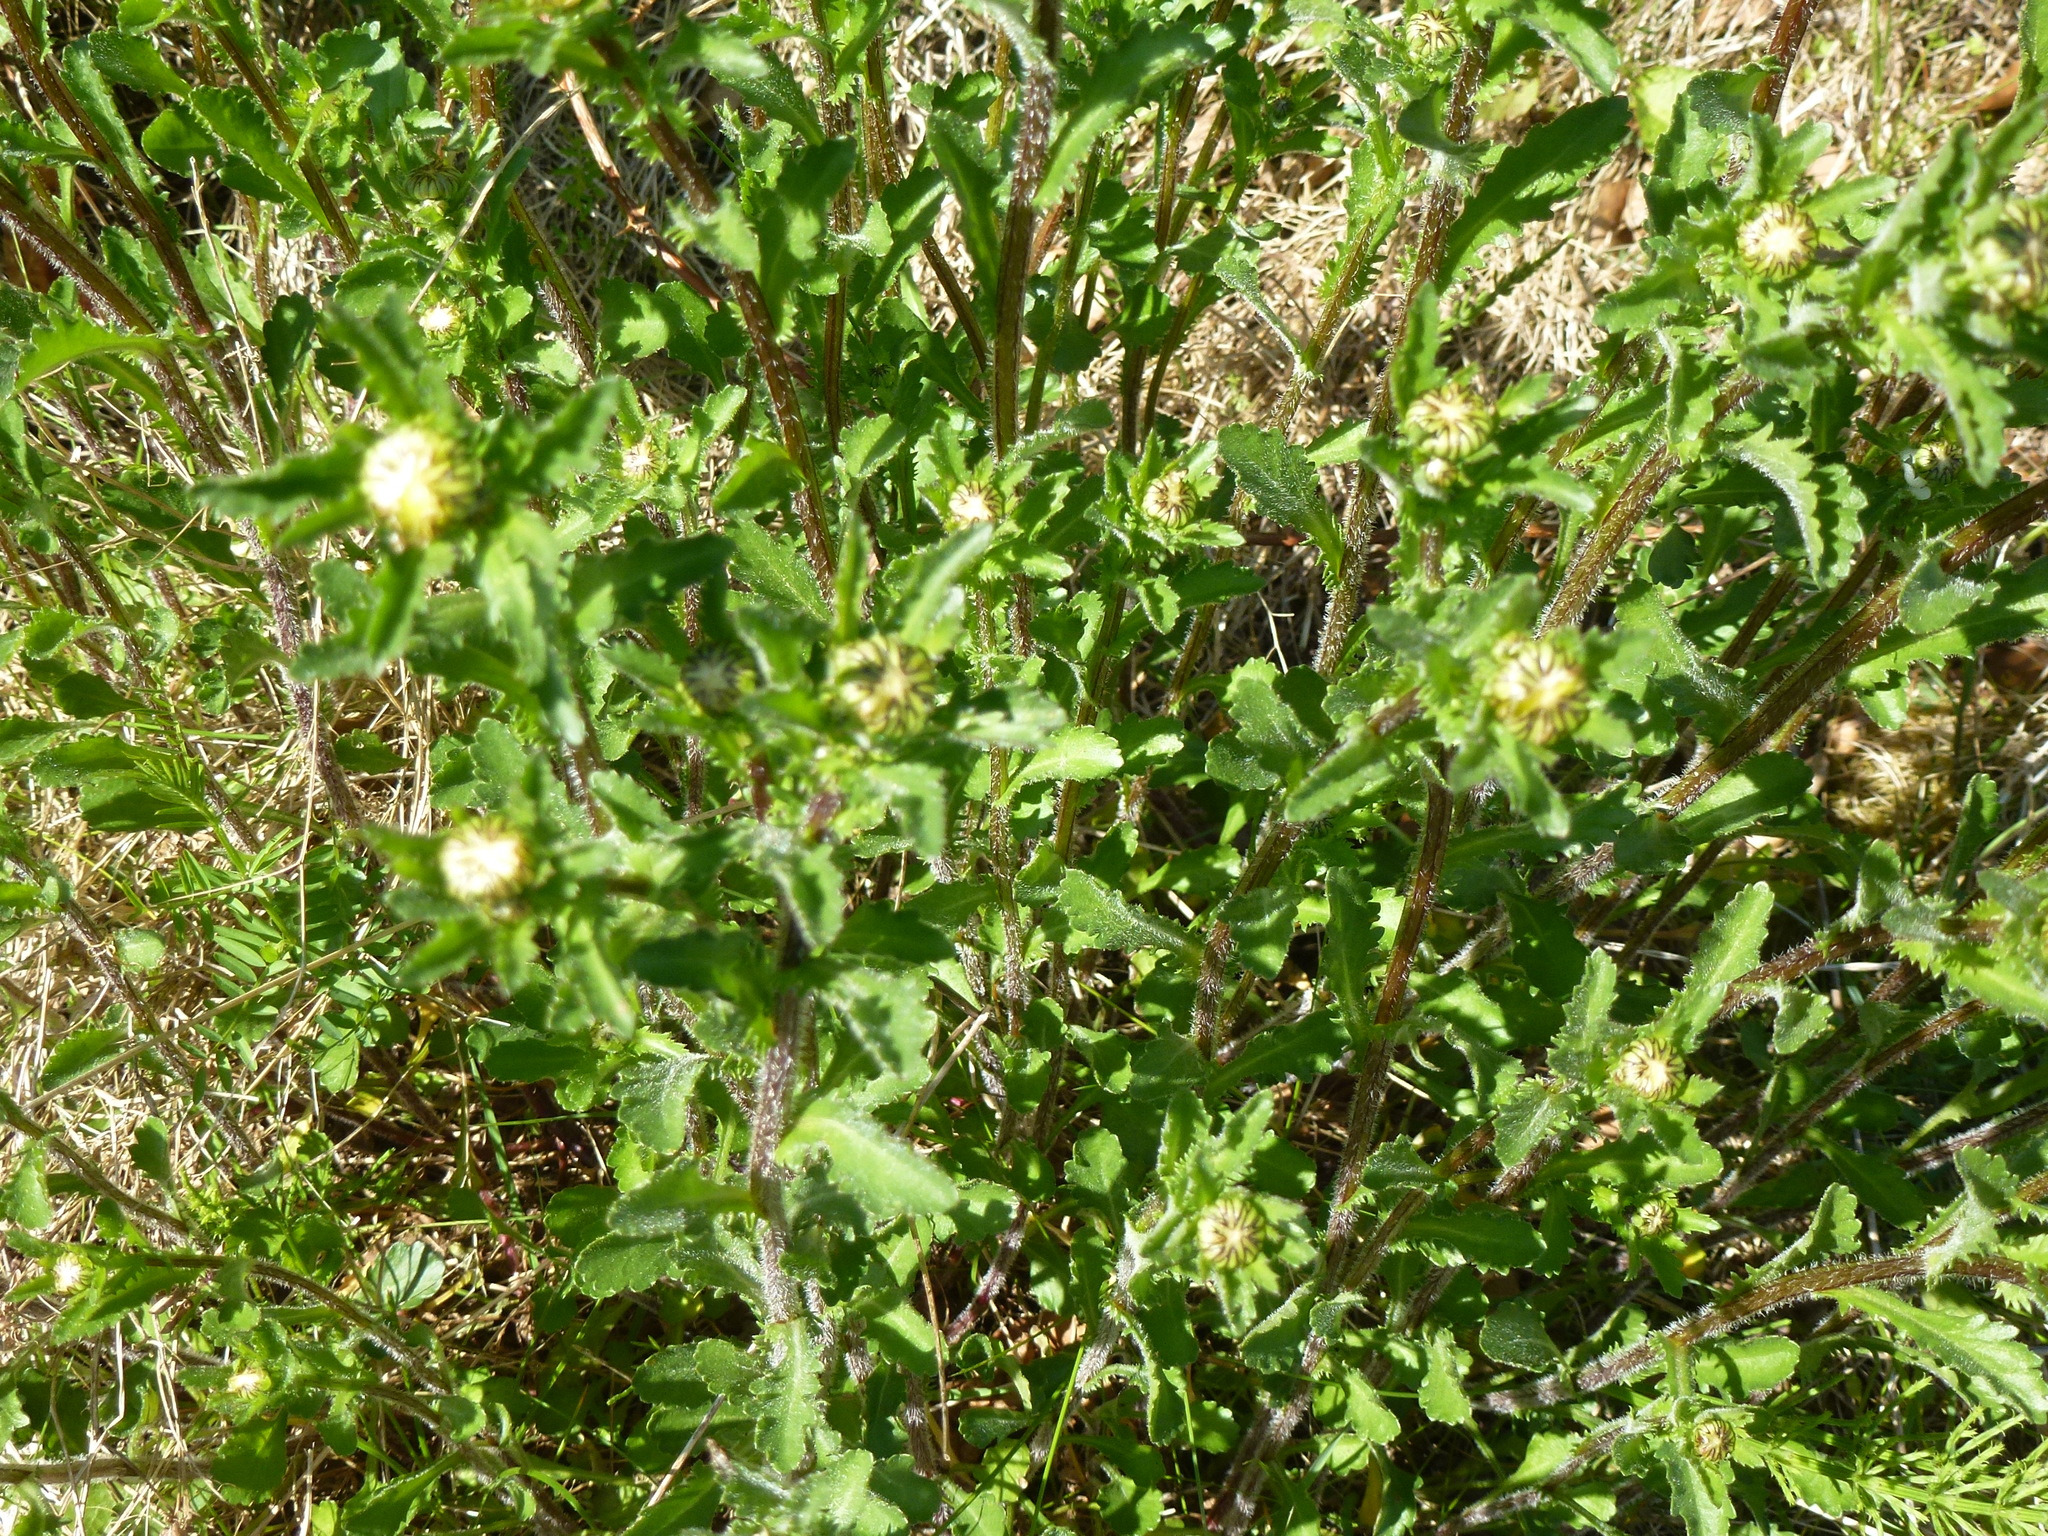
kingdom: Plantae
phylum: Tracheophyta
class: Magnoliopsida
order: Asterales
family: Asteraceae
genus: Leucanthemum
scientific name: Leucanthemum vulgare
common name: Oxeye daisy
